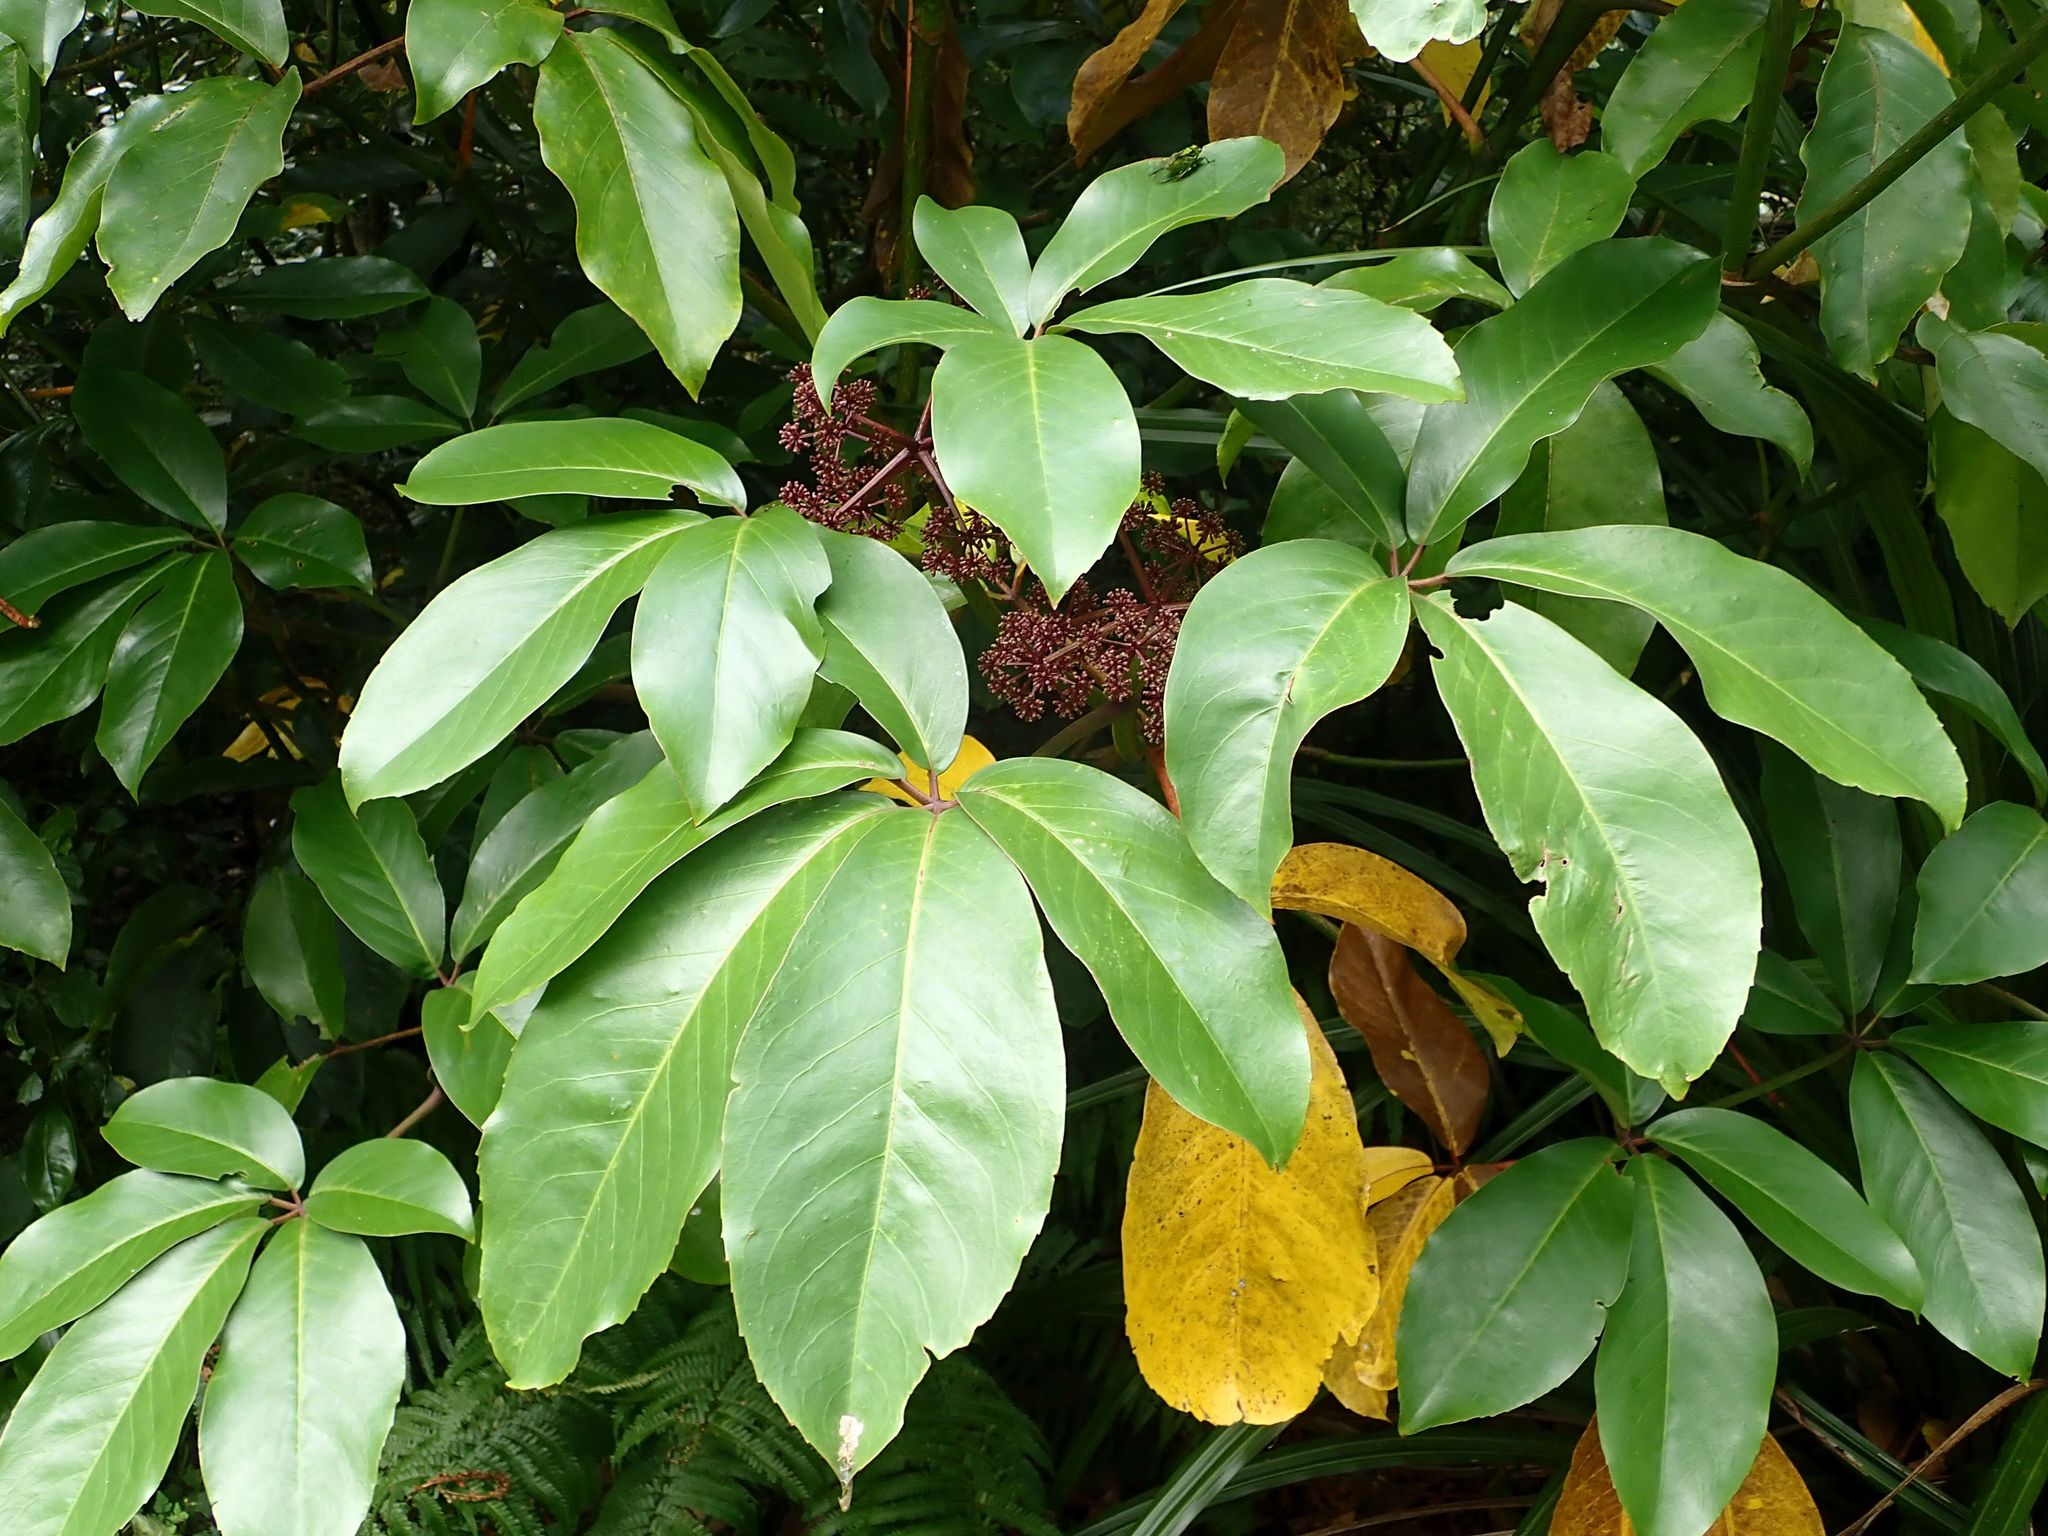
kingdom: Plantae
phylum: Tracheophyta
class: Magnoliopsida
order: Apiales
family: Araliaceae
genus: Neopanax
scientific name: Neopanax laetus
